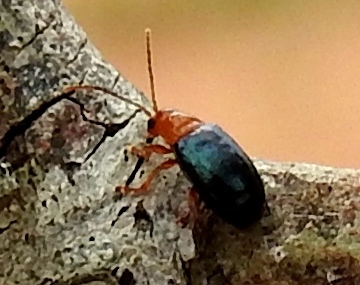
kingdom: Animalia
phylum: Arthropoda
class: Insecta
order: Coleoptera
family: Chrysomelidae
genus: Alticini
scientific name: Alticini
